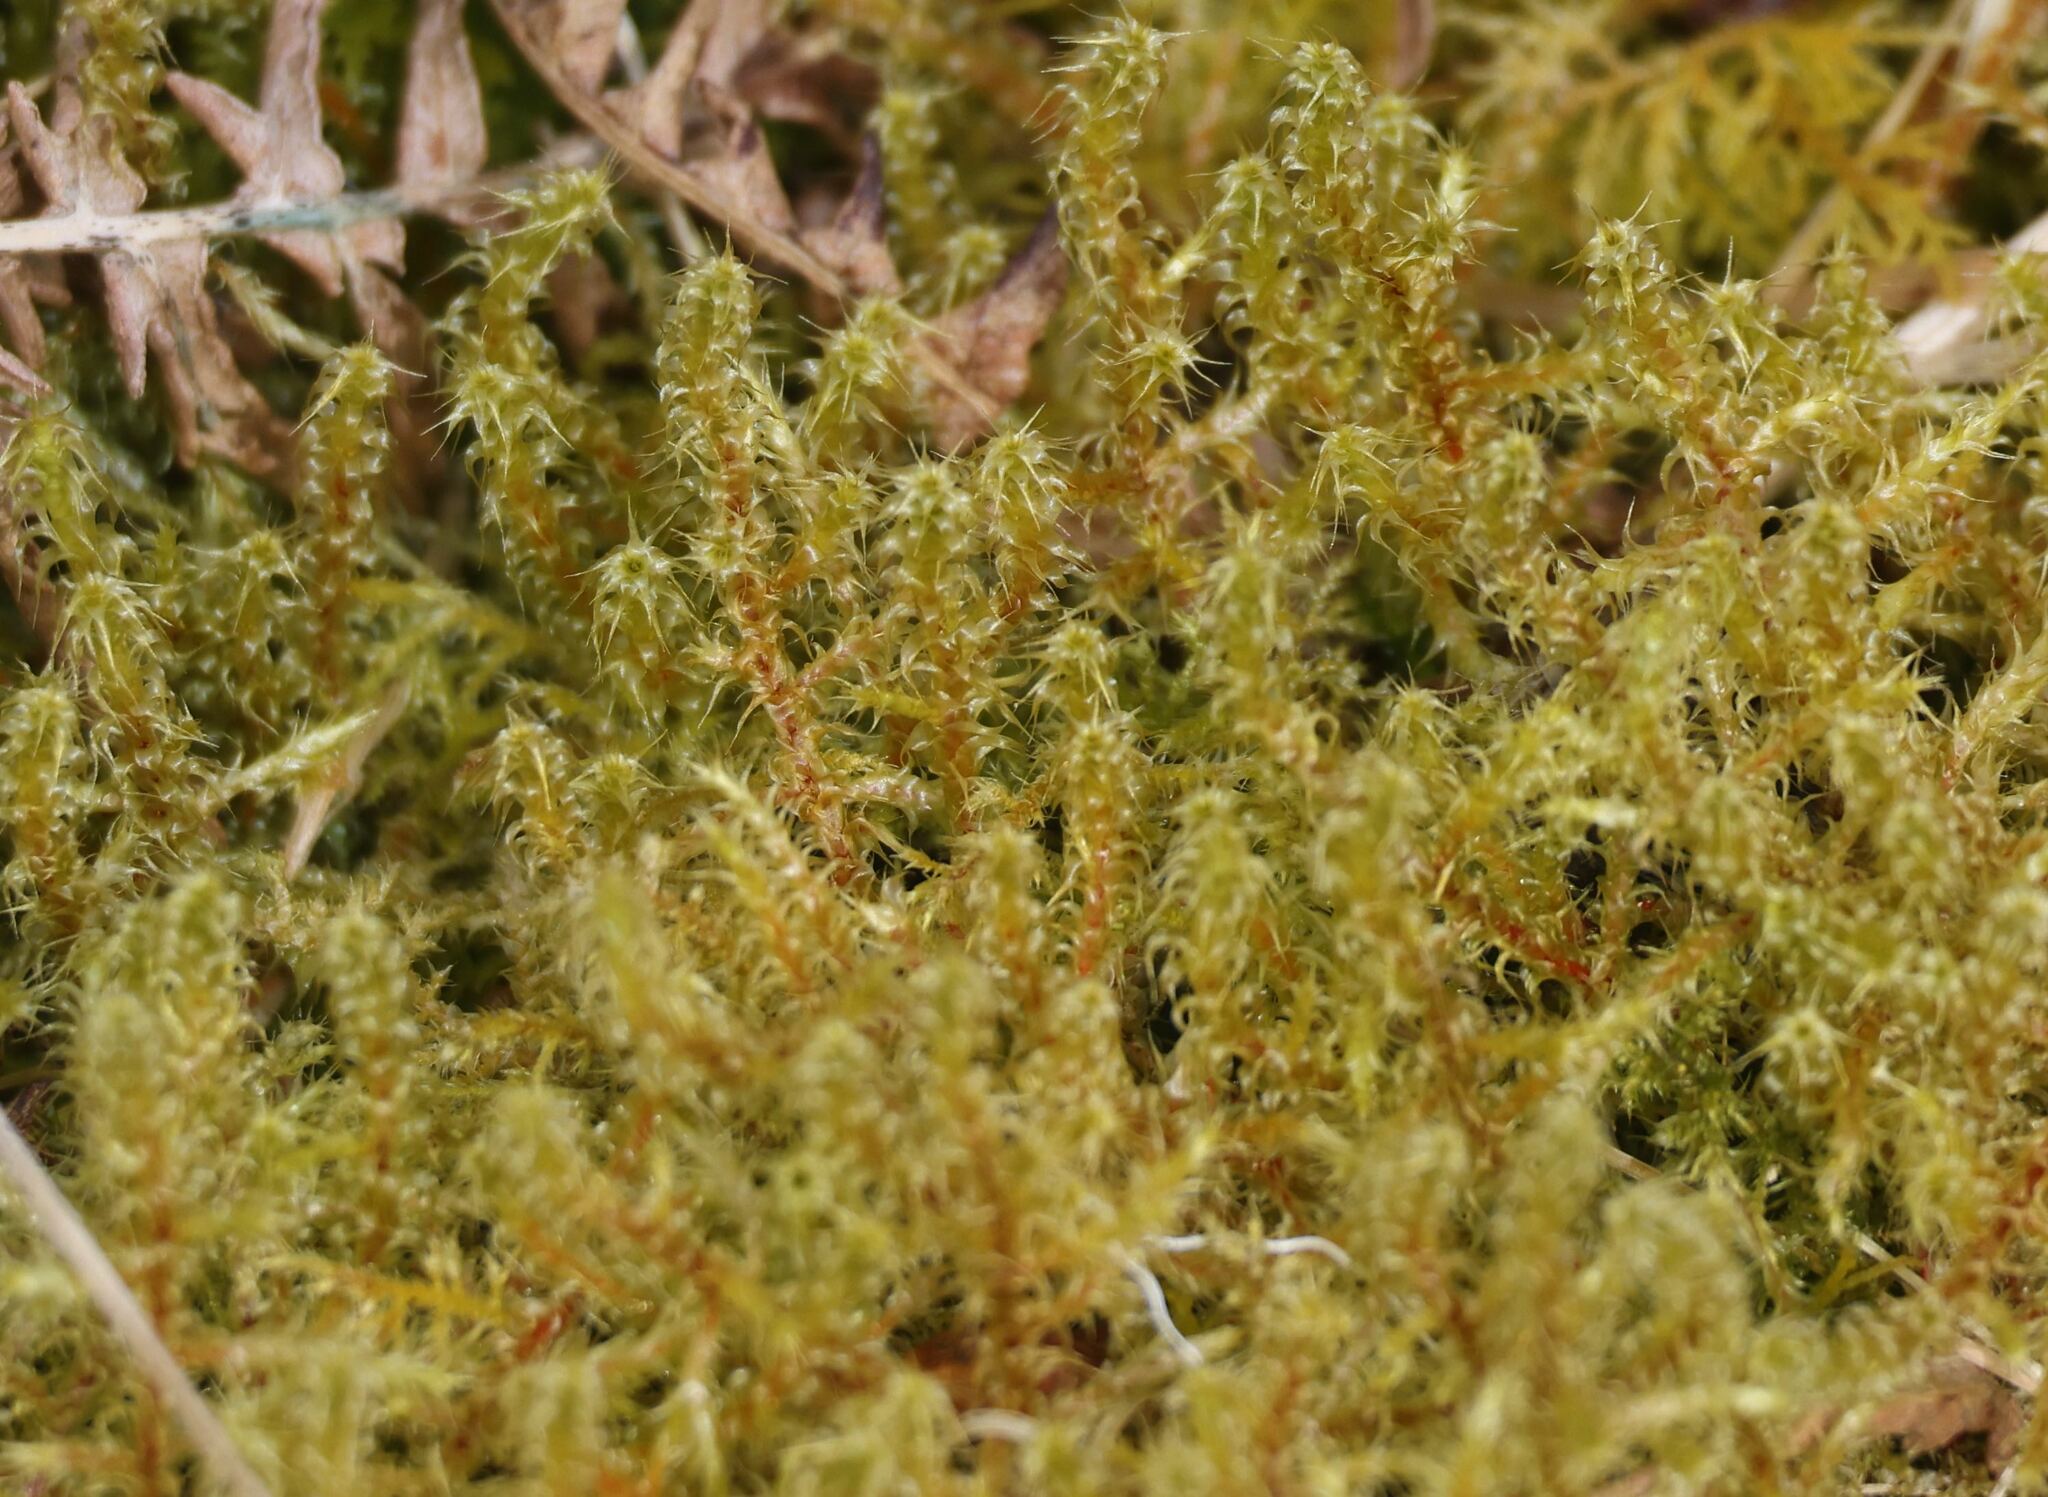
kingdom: Plantae
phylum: Bryophyta
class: Bryopsida
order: Hypnales
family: Hylocomiaceae
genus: Rhytidiadelphus
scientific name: Rhytidiadelphus squarrosus
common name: Springy turf-moss
